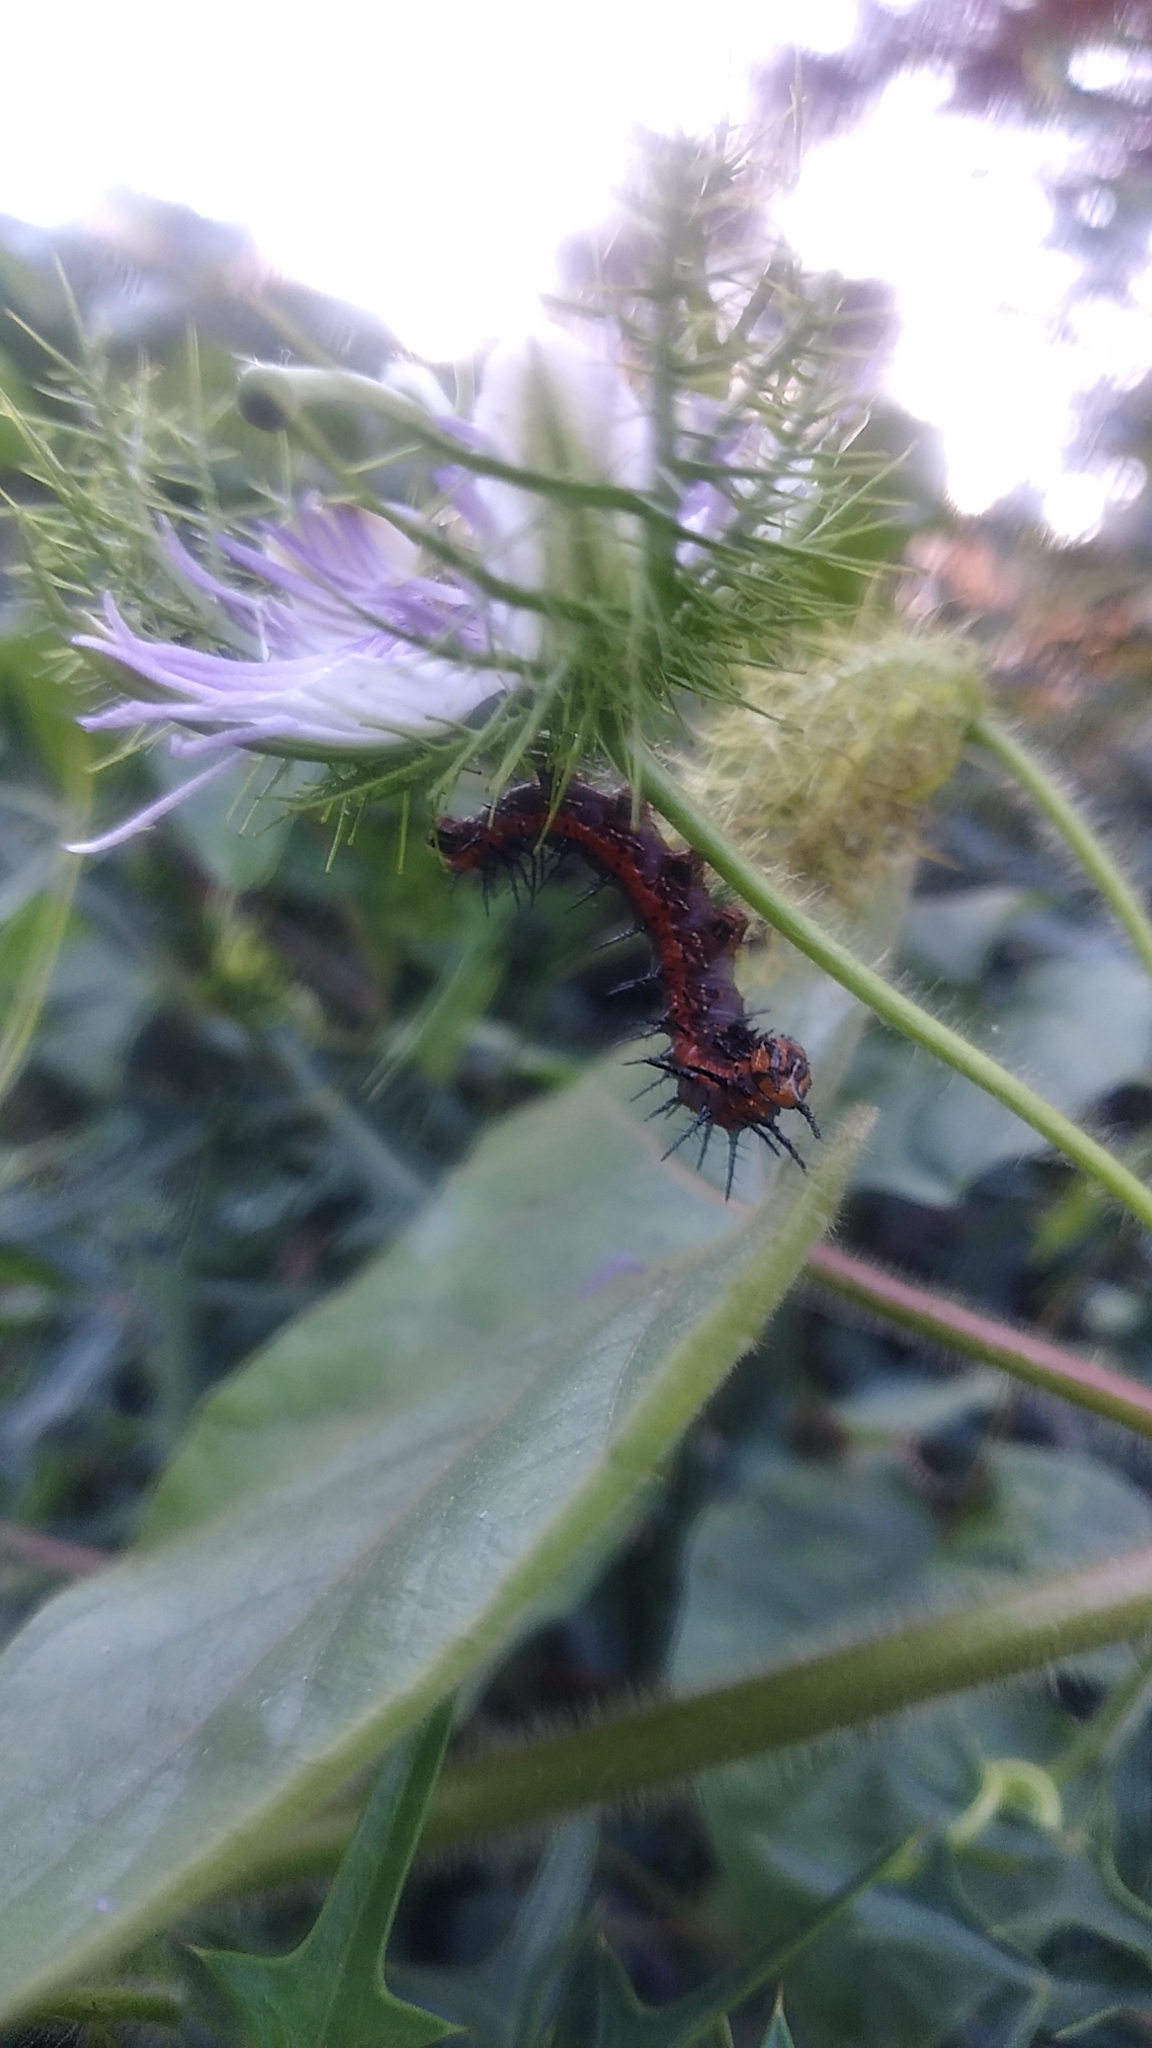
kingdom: Animalia
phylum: Arthropoda
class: Insecta
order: Lepidoptera
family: Nymphalidae
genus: Dione
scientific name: Dione vanillae
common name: Gulf fritillary
